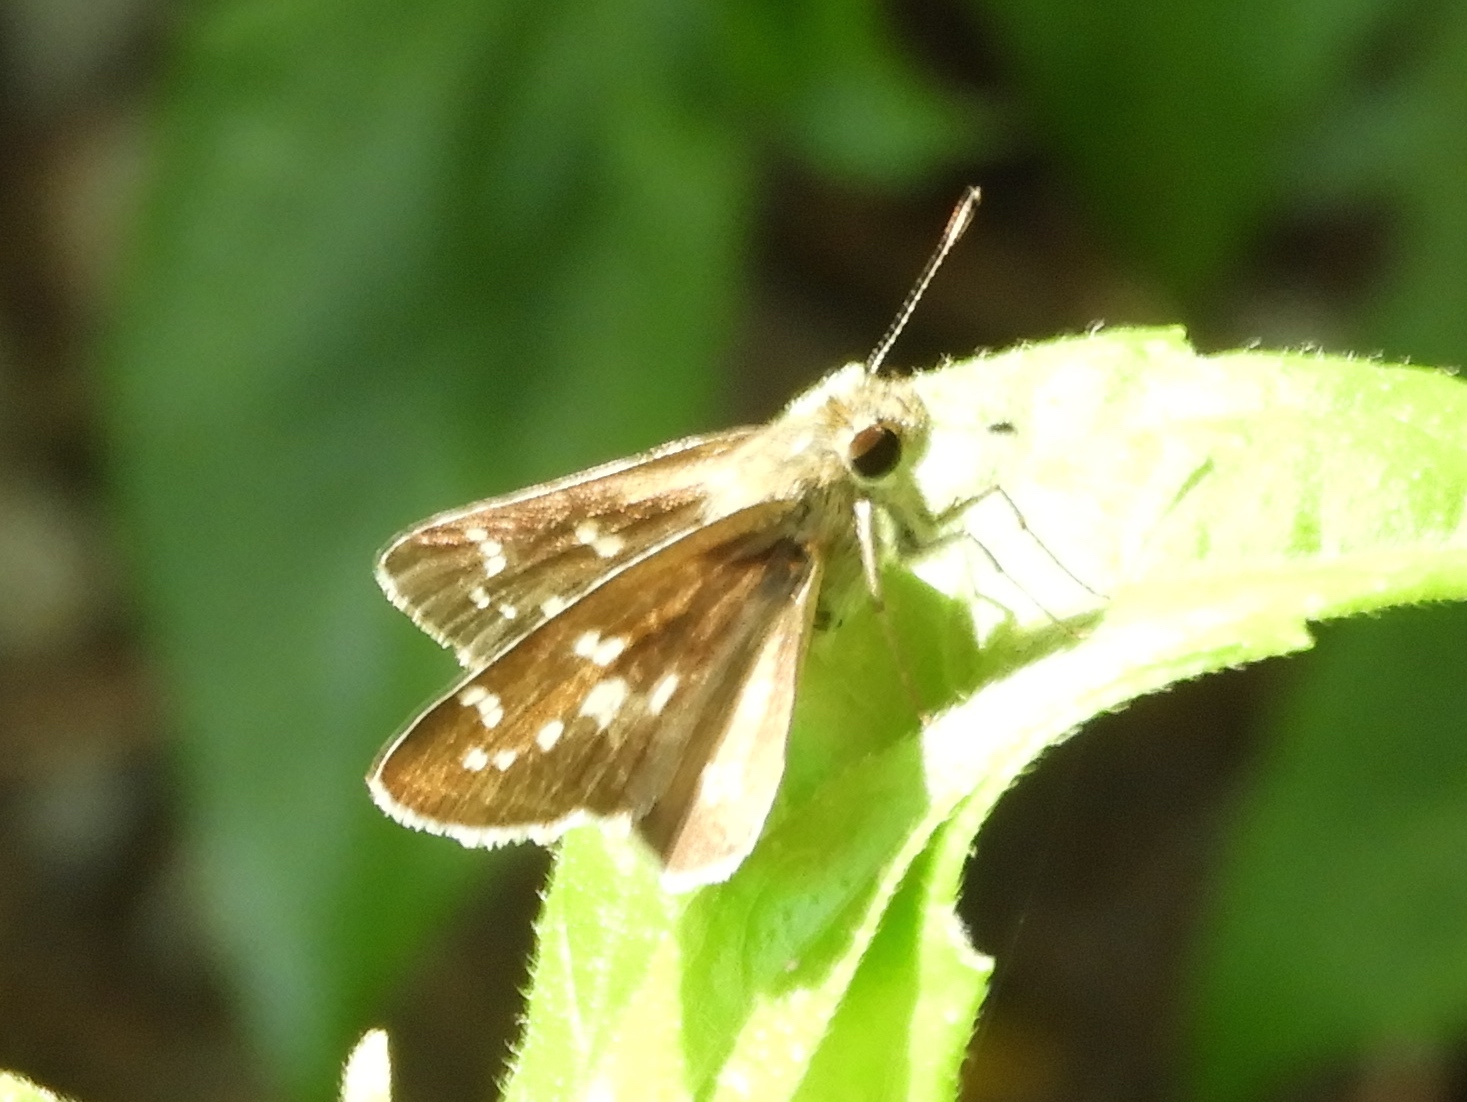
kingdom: Animalia
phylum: Arthropoda
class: Insecta
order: Lepidoptera
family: Hesperiidae
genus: Mastor
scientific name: Mastor tolteca
